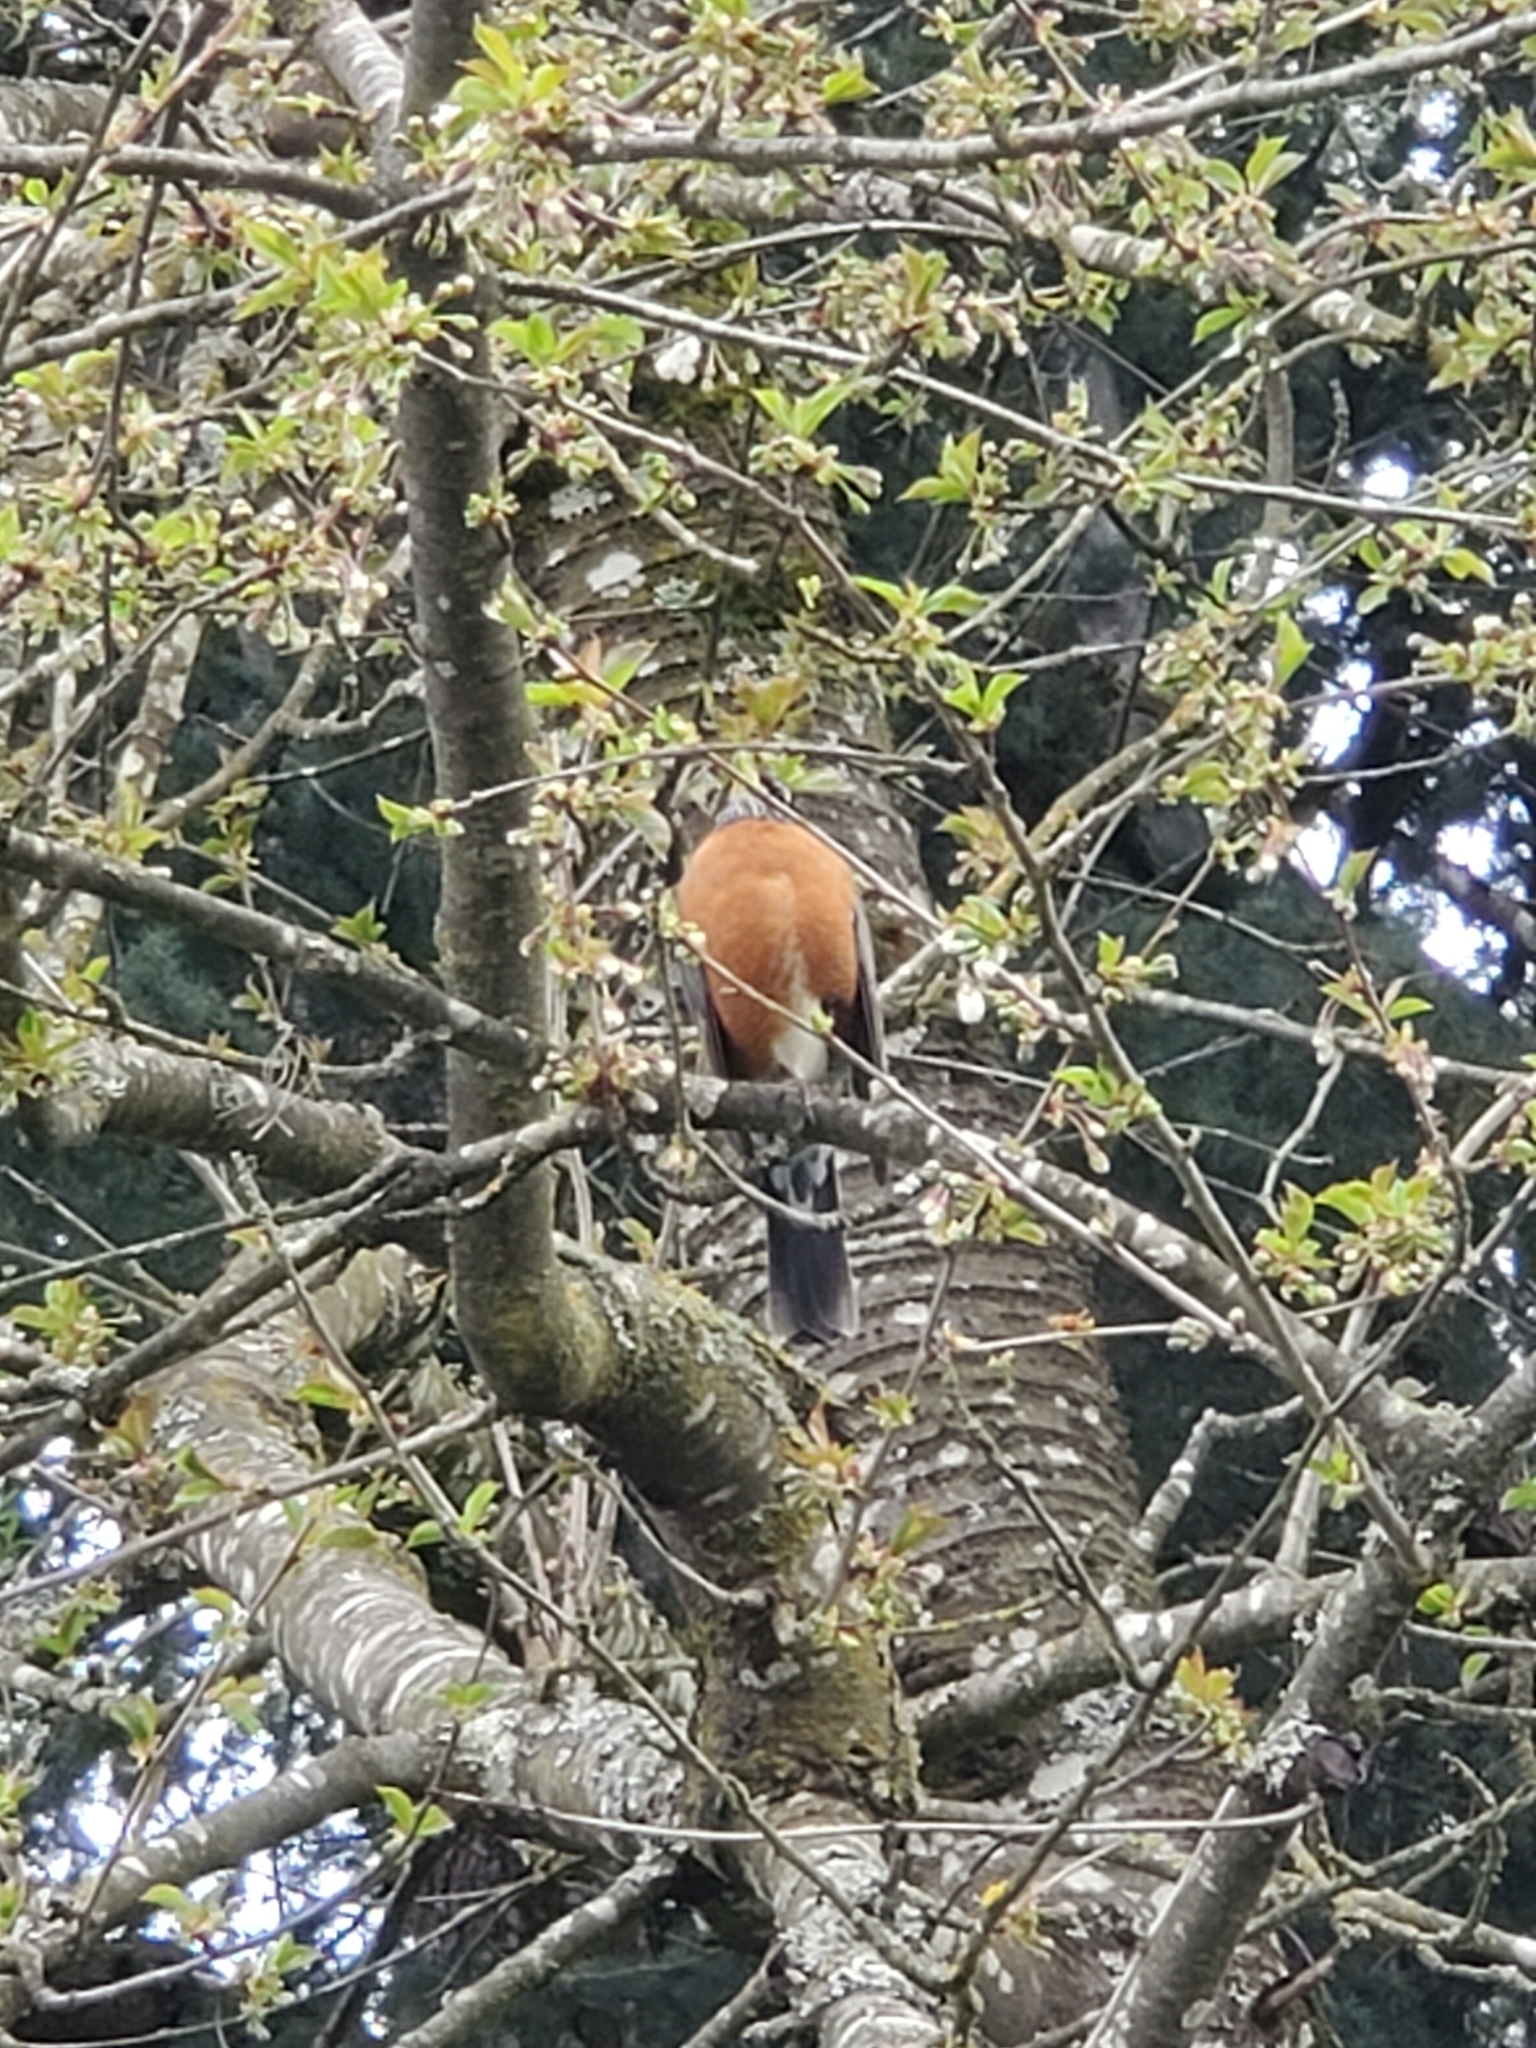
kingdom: Animalia
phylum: Chordata
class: Aves
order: Passeriformes
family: Turdidae
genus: Turdus
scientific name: Turdus migratorius
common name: American robin
